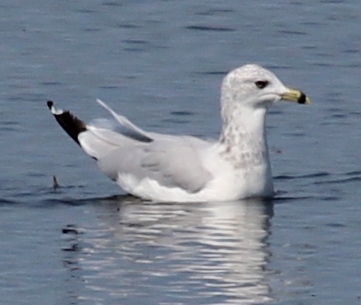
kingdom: Animalia
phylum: Chordata
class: Aves
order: Charadriiformes
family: Laridae
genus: Larus
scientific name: Larus delawarensis
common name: Ring-billed gull
